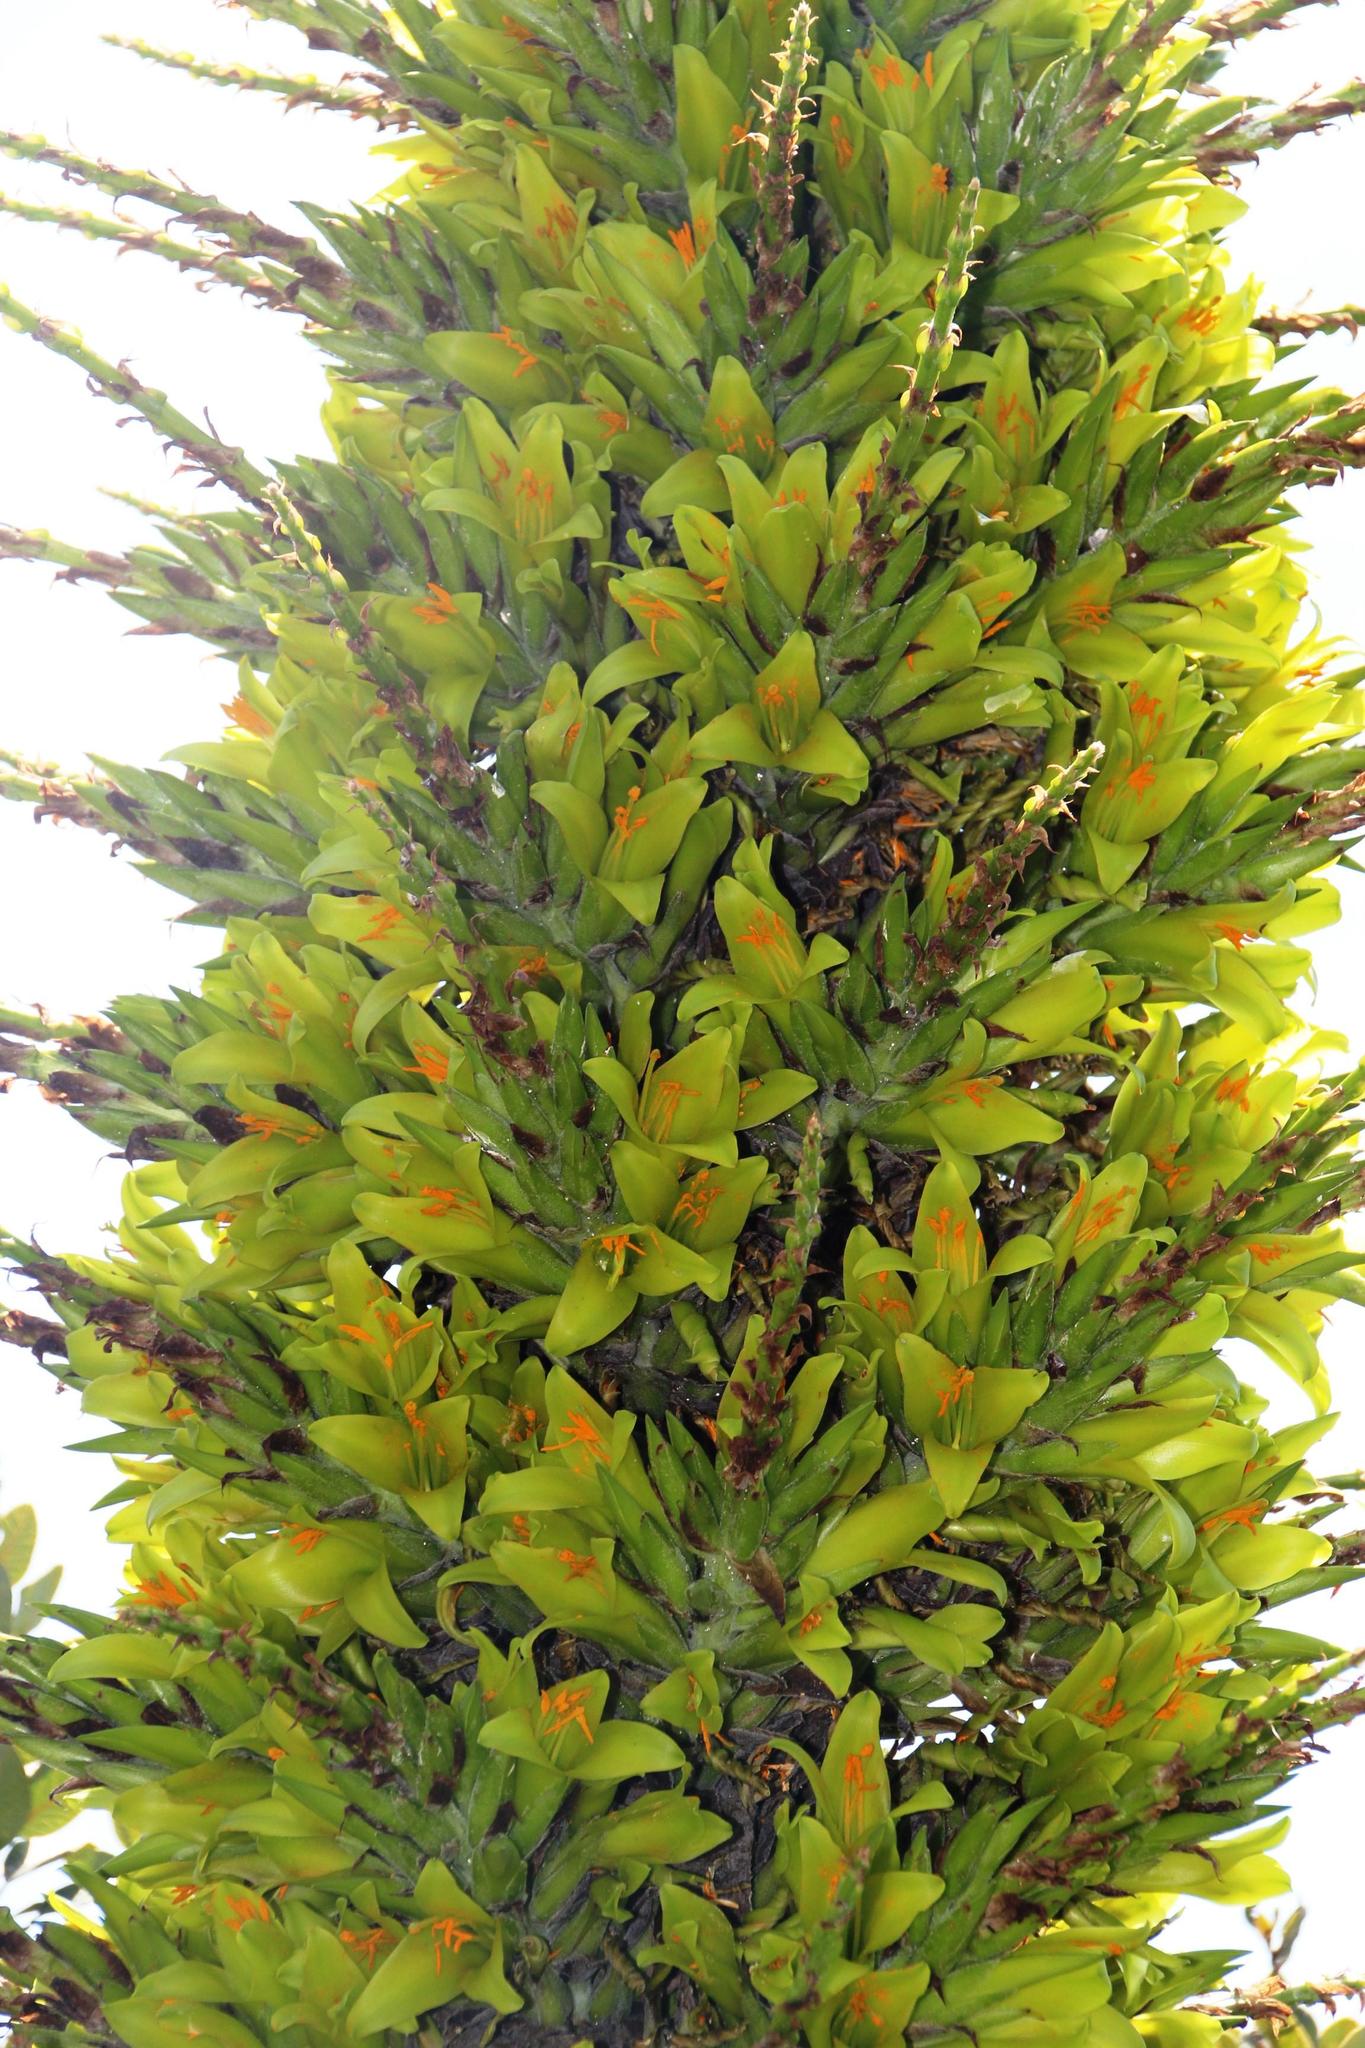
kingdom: Plantae
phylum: Tracheophyta
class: Liliopsida
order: Poales
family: Bromeliaceae
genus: Puya
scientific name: Puya chilensis
